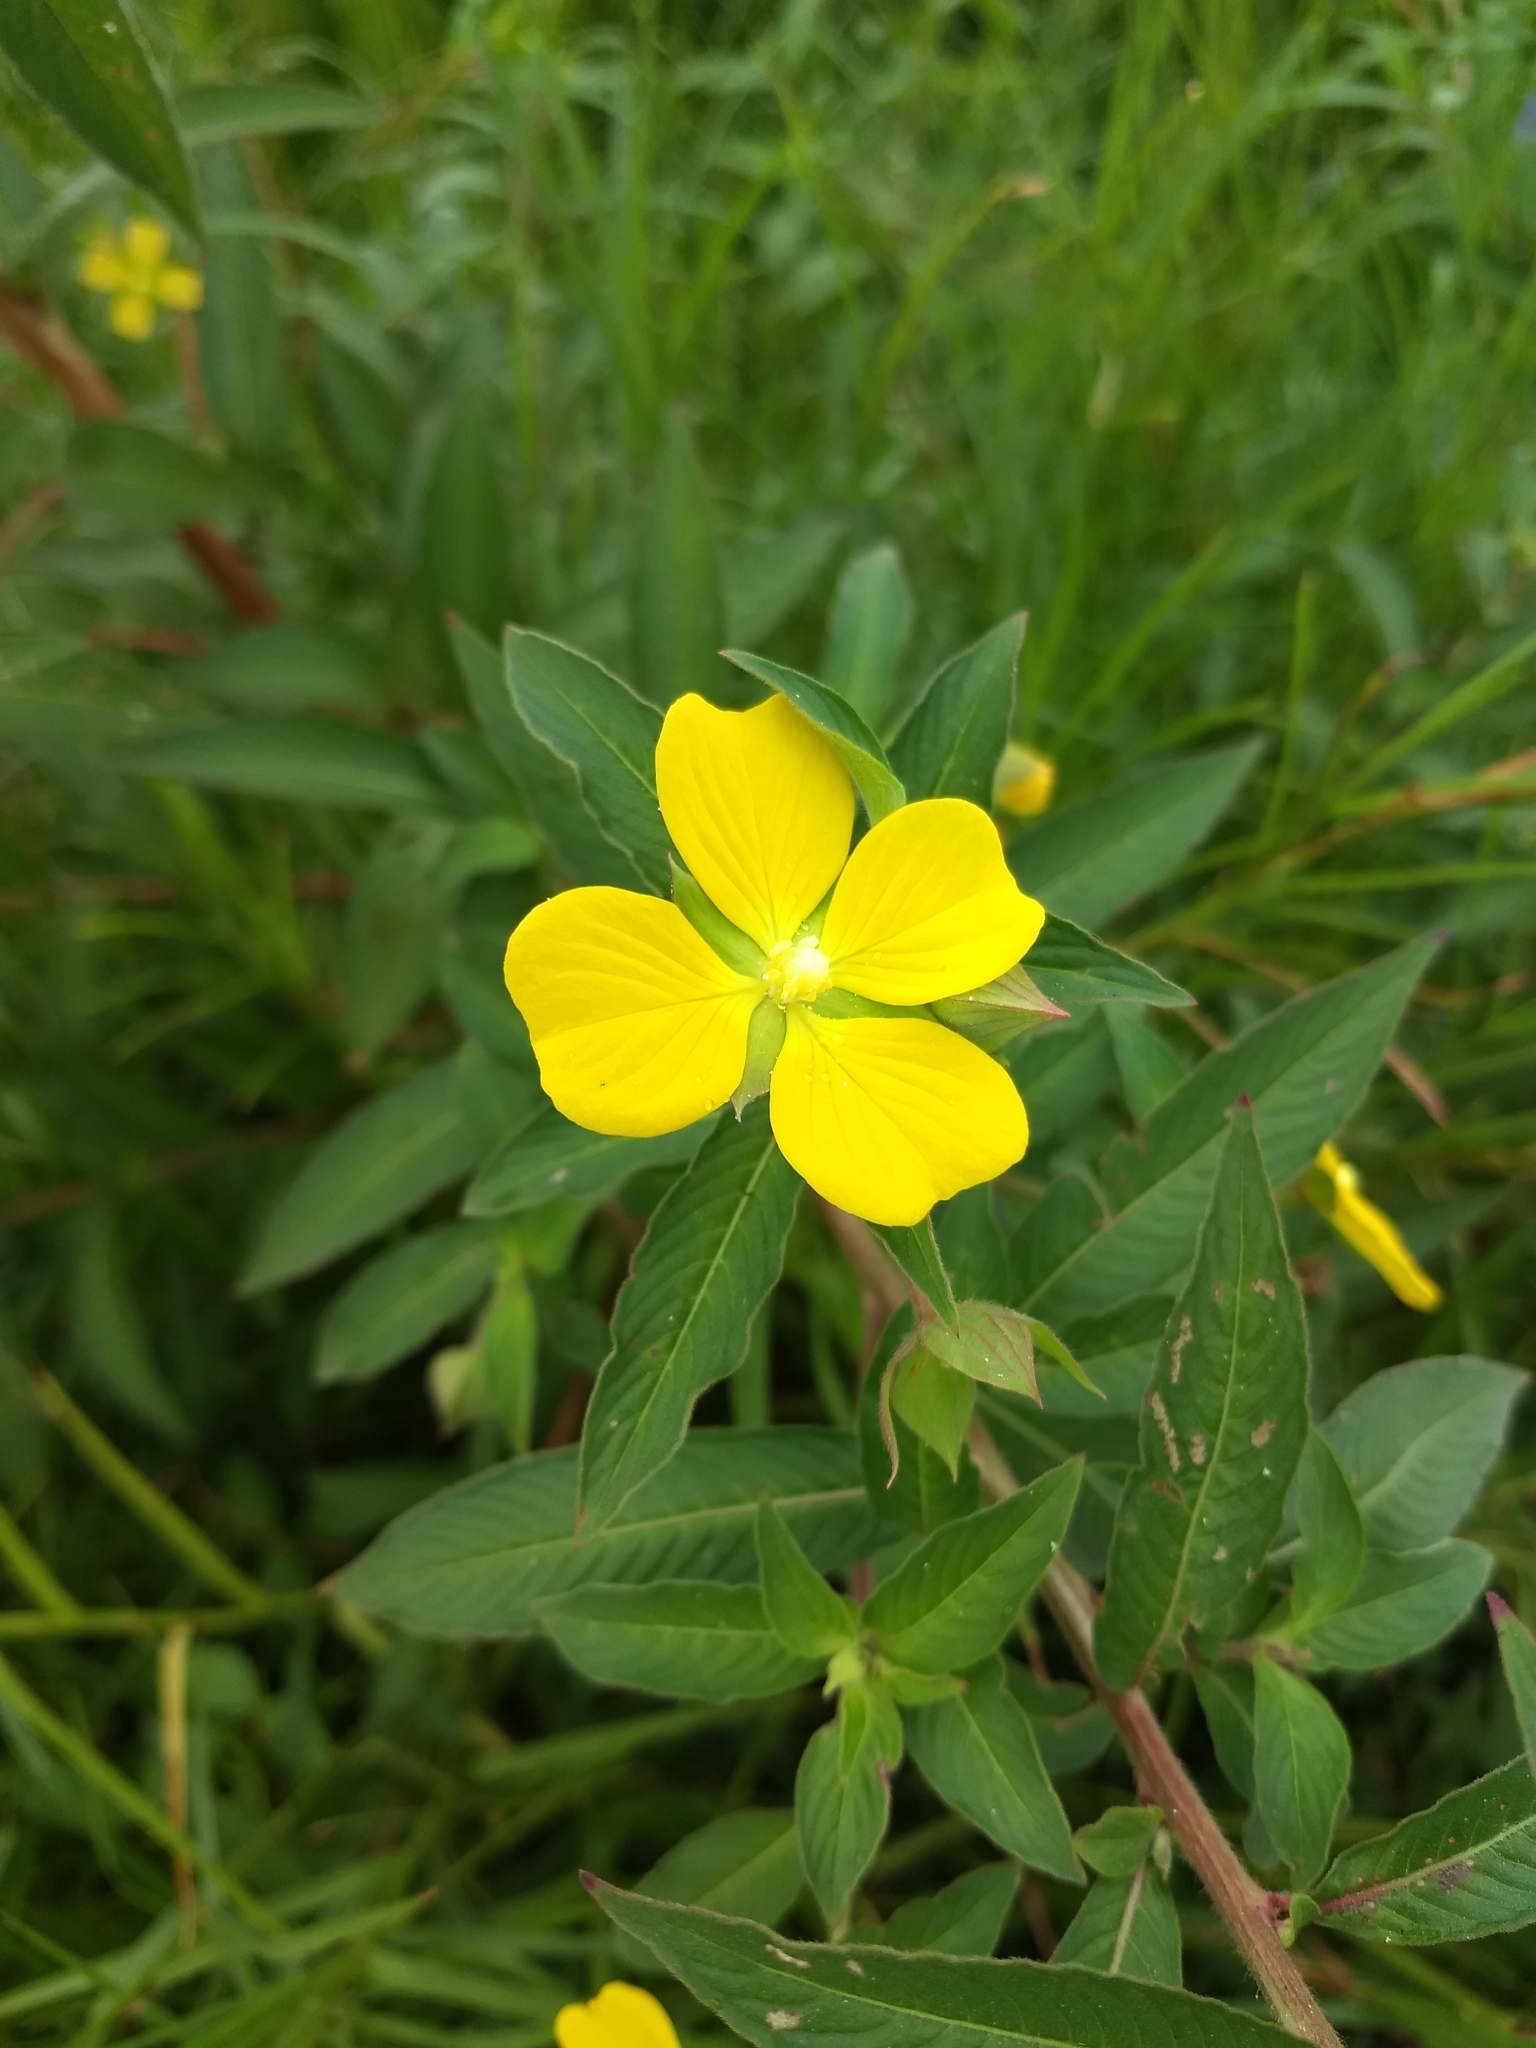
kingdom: Plantae
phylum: Tracheophyta
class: Magnoliopsida
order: Myrtales
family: Onagraceae
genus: Ludwigia
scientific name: Ludwigia octovalvis
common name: Water-primrose
